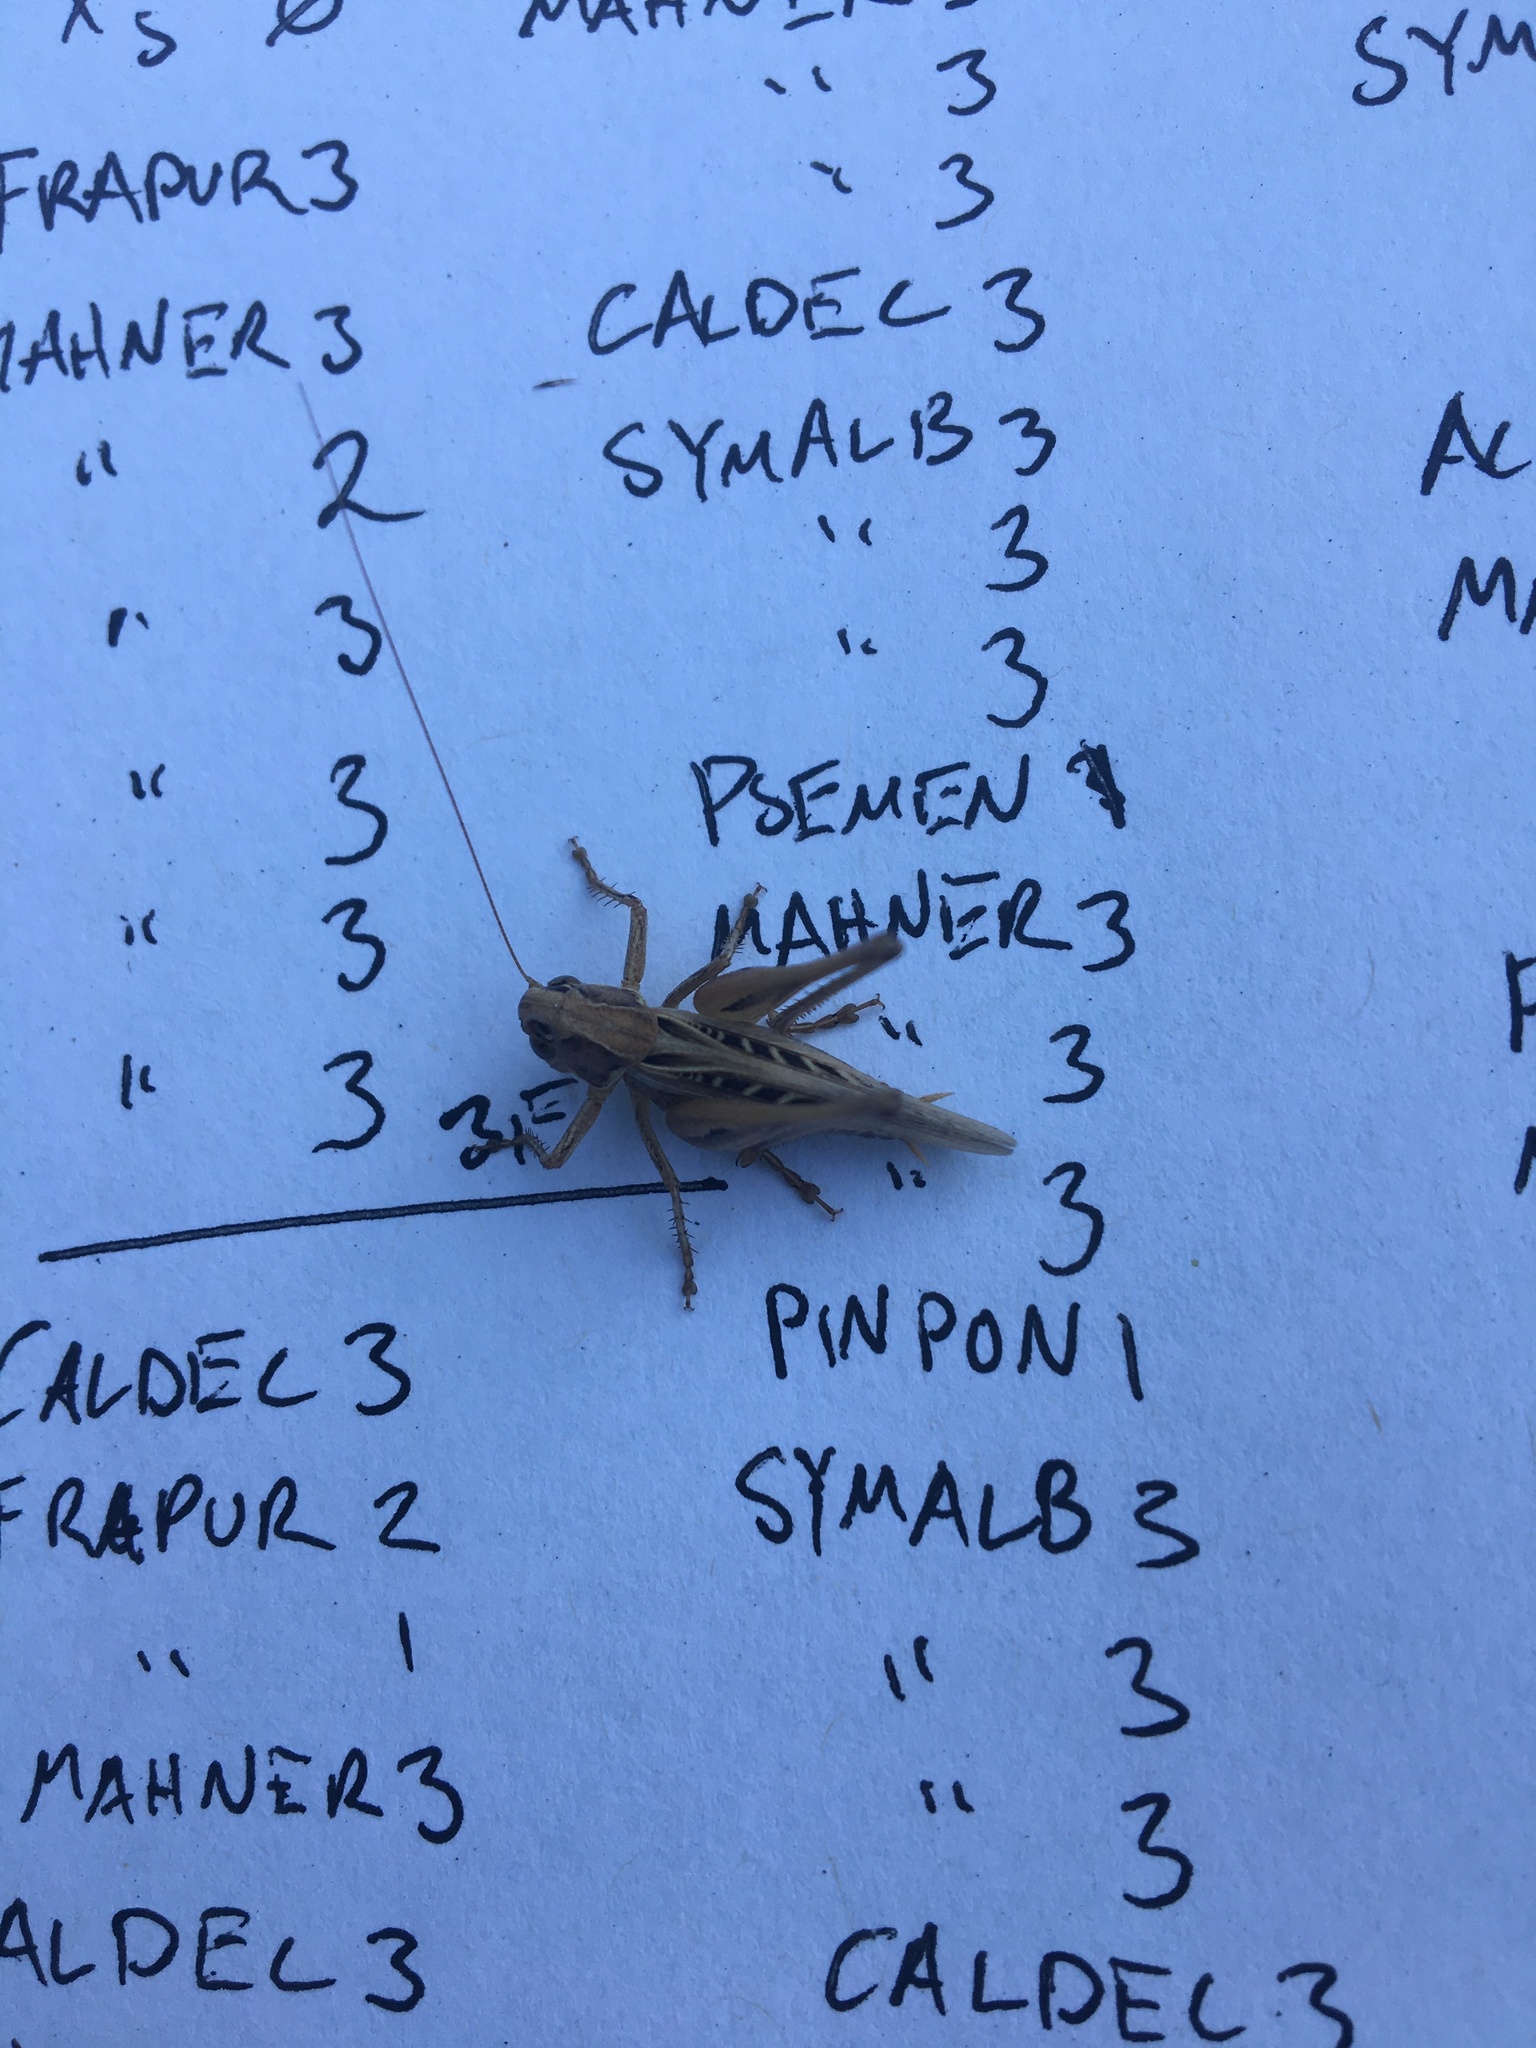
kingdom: Animalia
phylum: Arthropoda
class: Insecta
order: Orthoptera
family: Tettigoniidae
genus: Tessellana
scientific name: Tessellana tessellata
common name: Grasshopper
